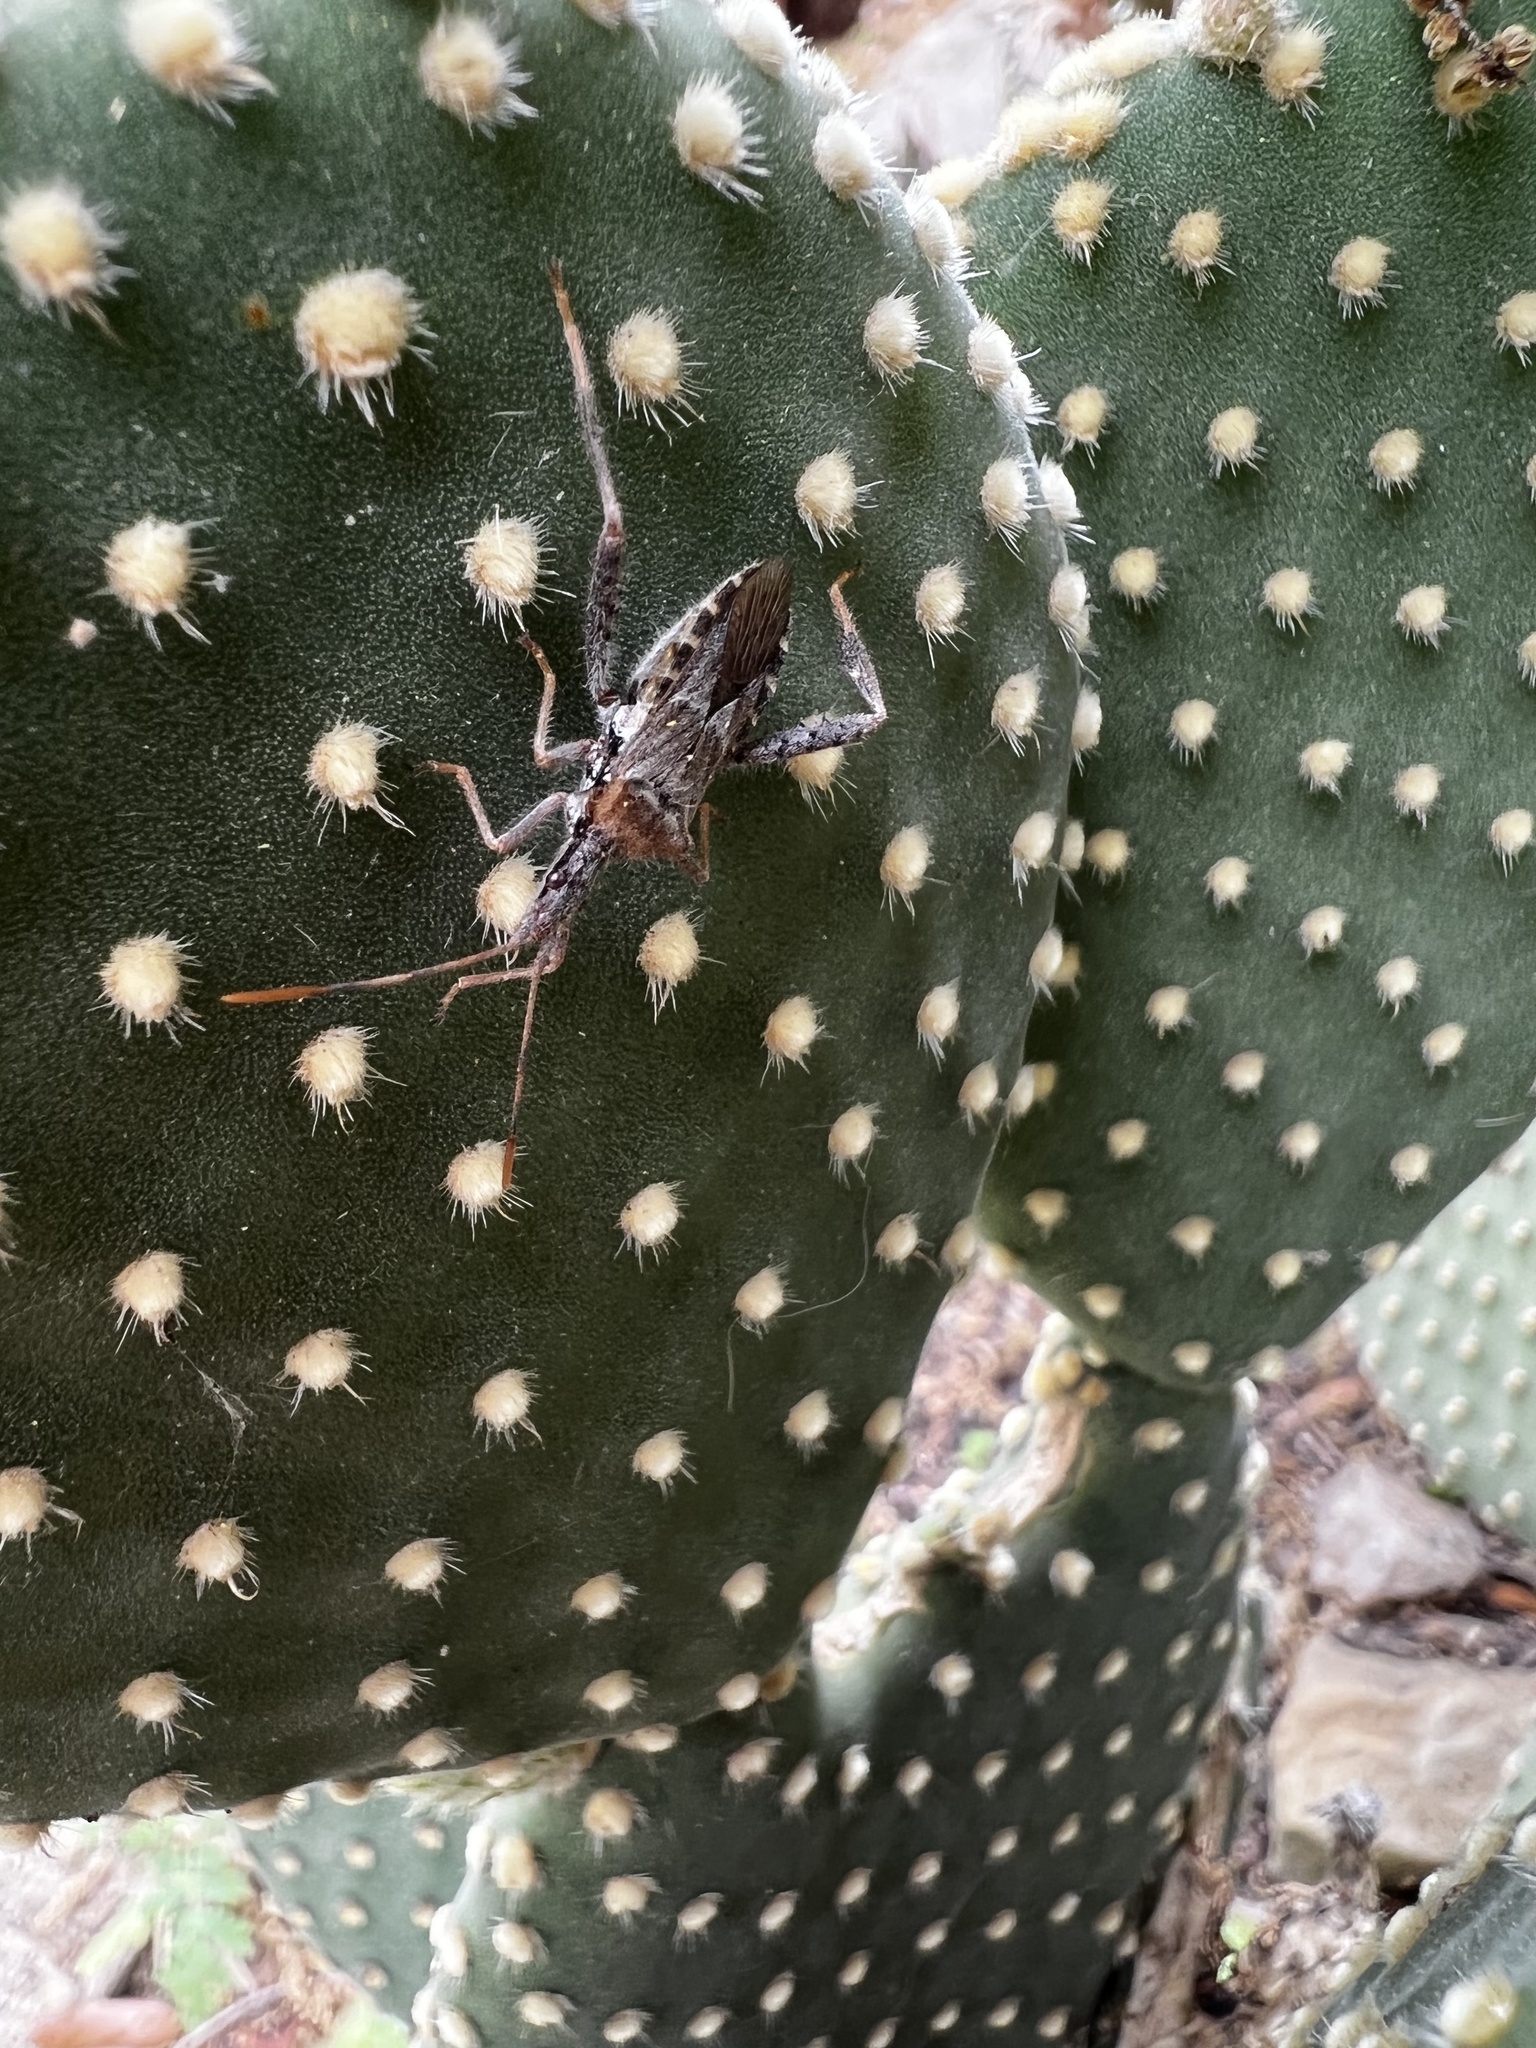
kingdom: Animalia
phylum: Arthropoda
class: Insecta
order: Hemiptera
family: Coreidae
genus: Narnia
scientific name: Narnia femorata
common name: Leaf-footed cactus bug
